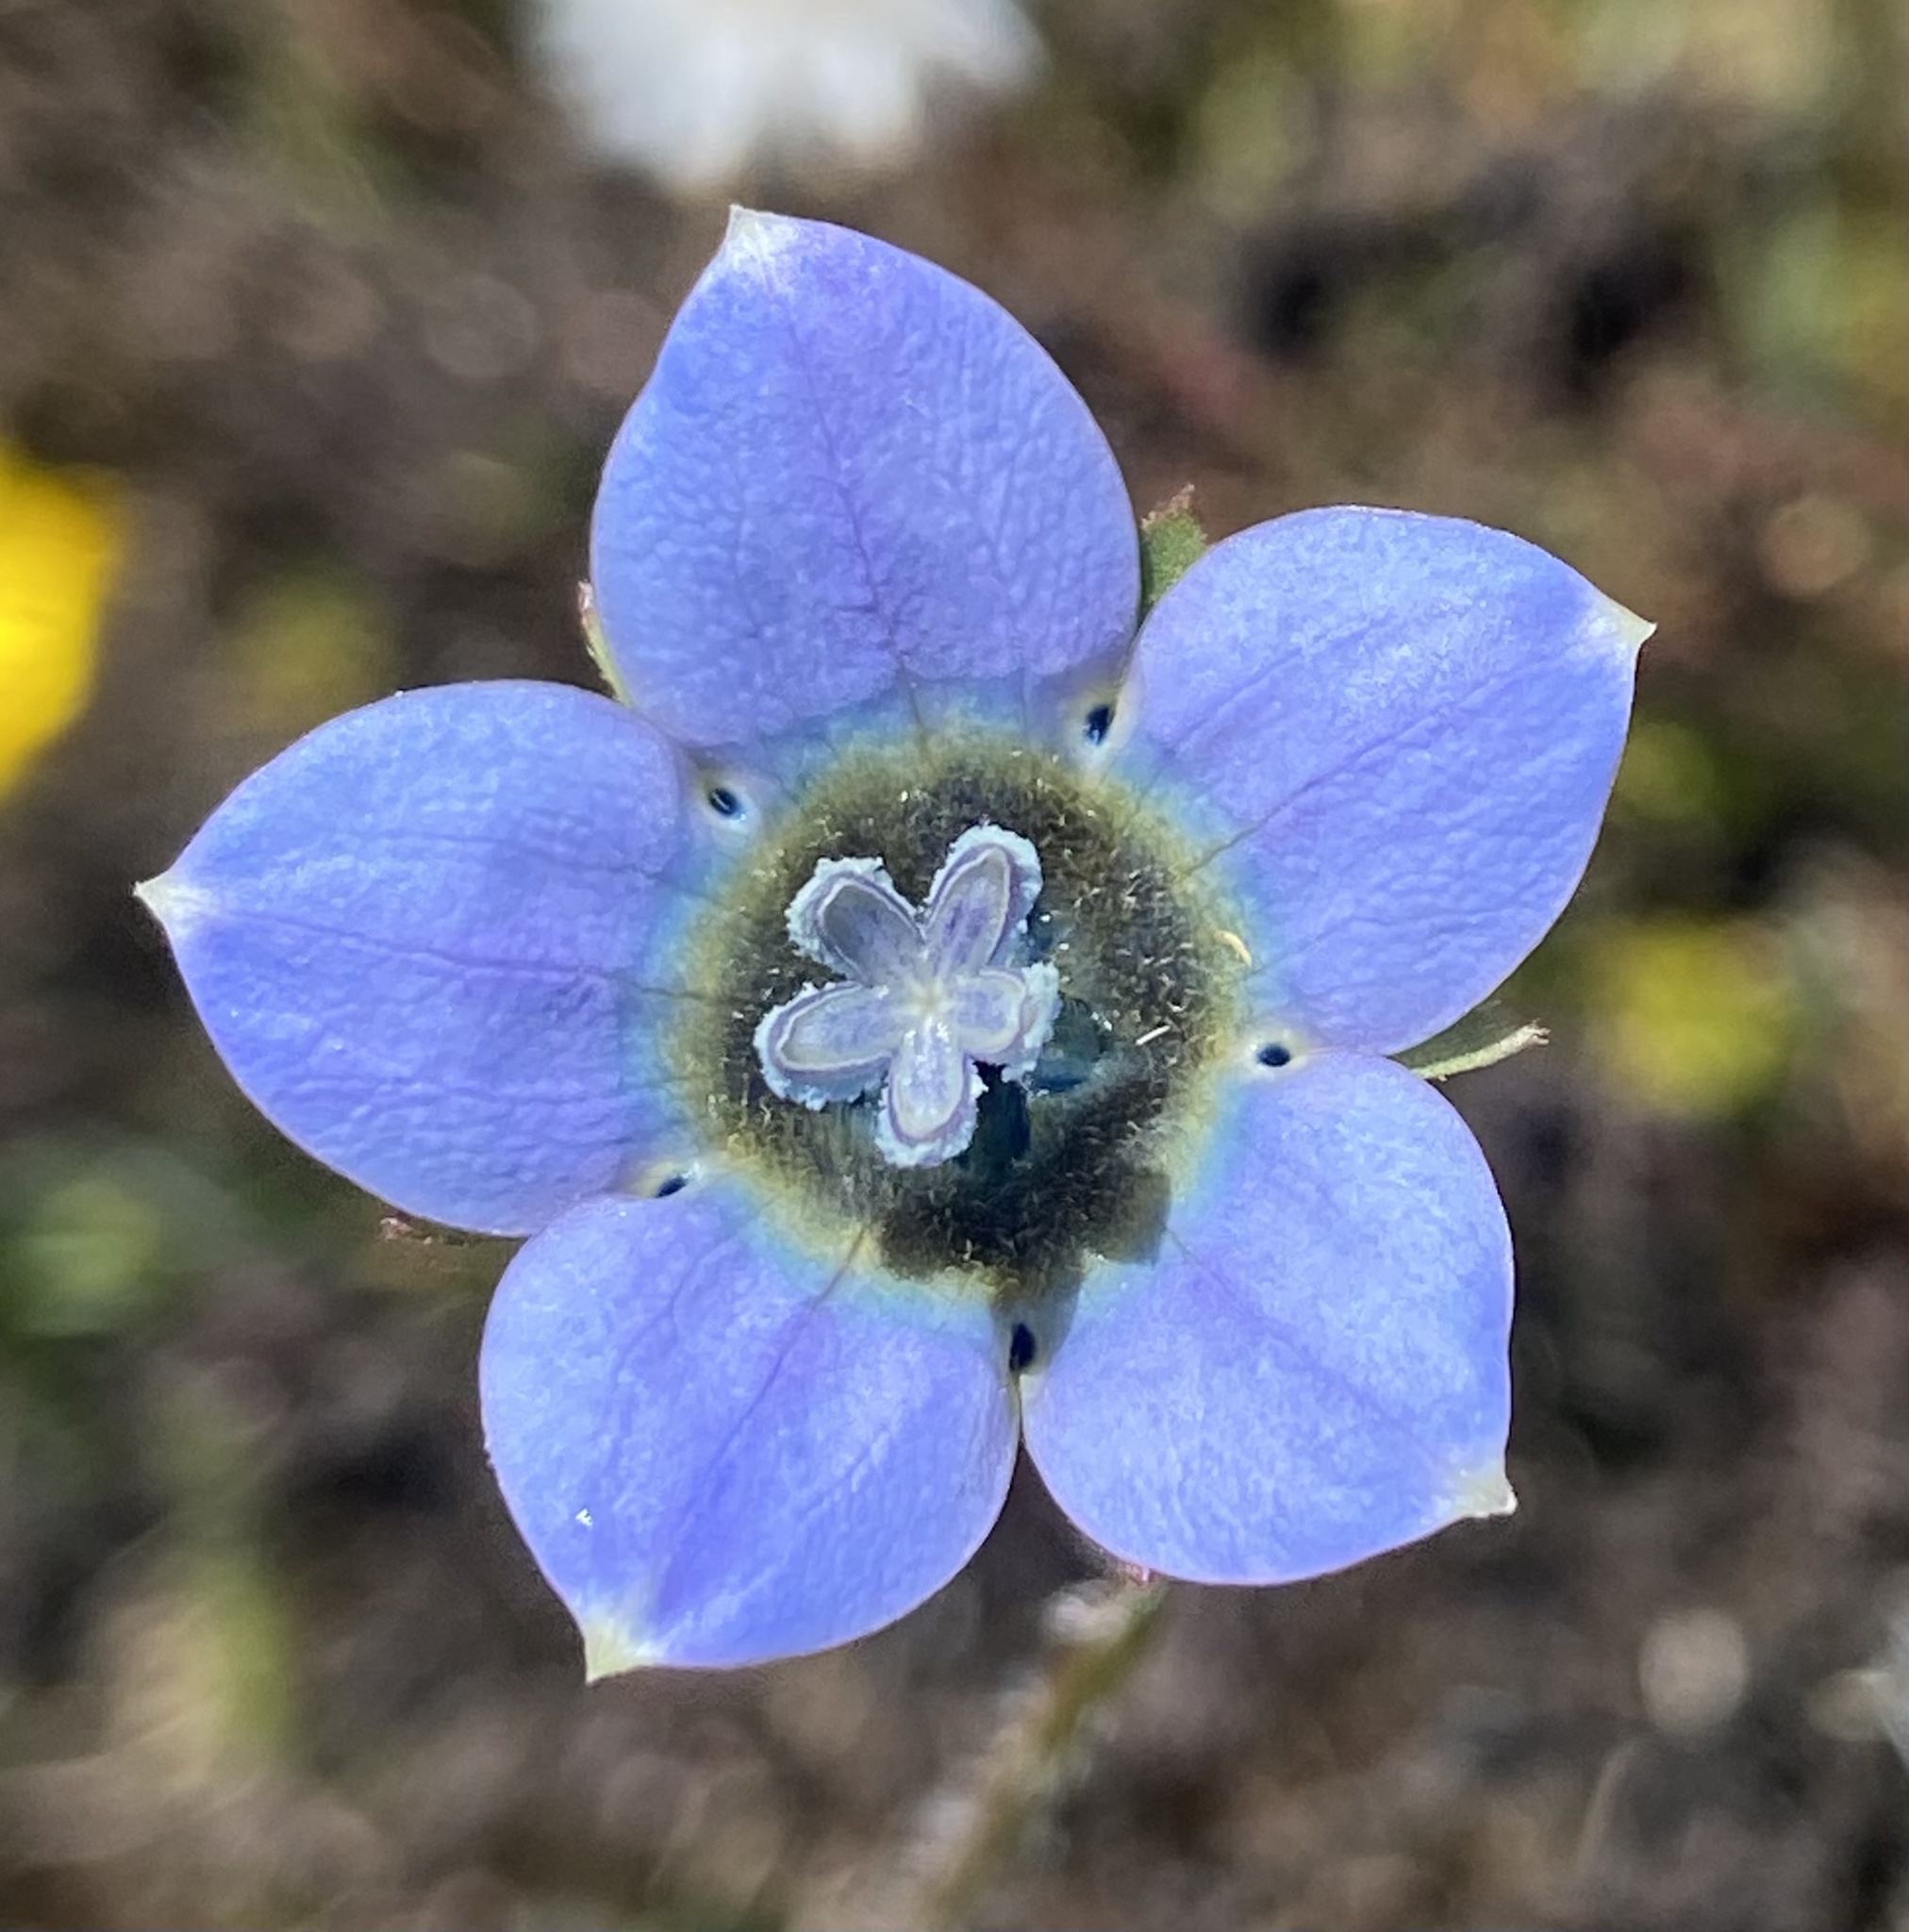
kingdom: Plantae
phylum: Tracheophyta
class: Magnoliopsida
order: Asterales
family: Campanulaceae
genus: Wahlenbergia
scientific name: Wahlenbergia capensis
